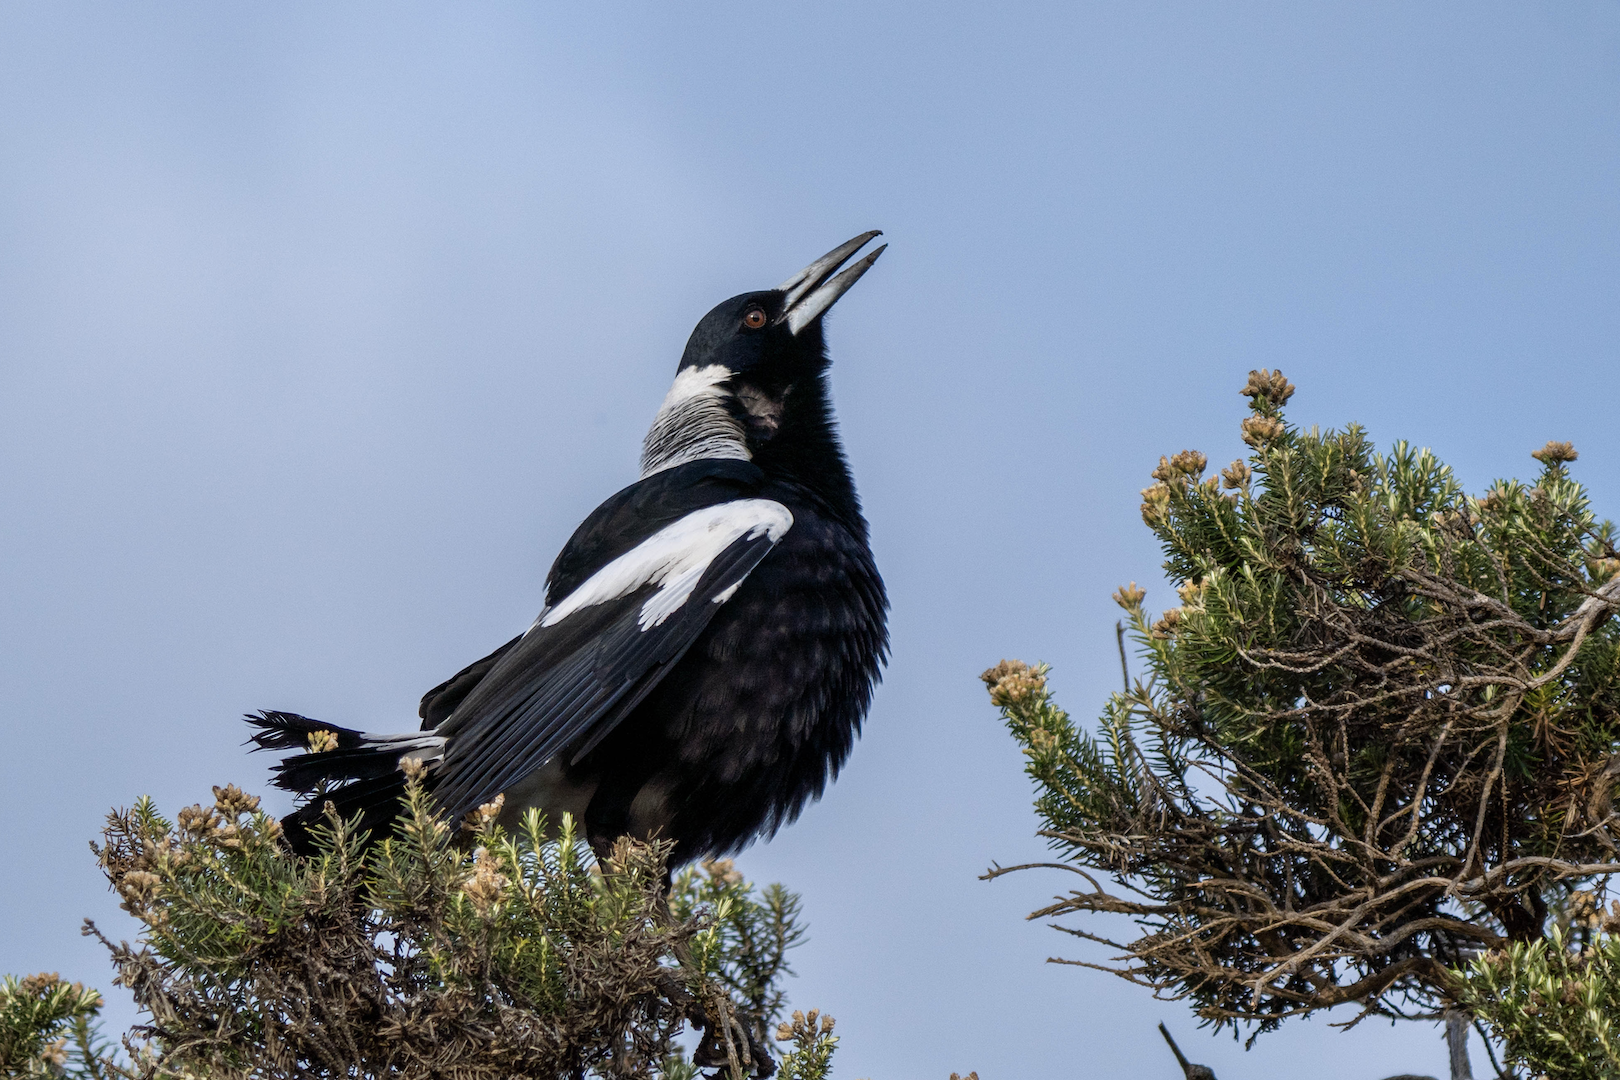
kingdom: Animalia
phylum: Chordata
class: Aves
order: Passeriformes
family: Cracticidae
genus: Gymnorhina
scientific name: Gymnorhina tibicen
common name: Australian magpie
